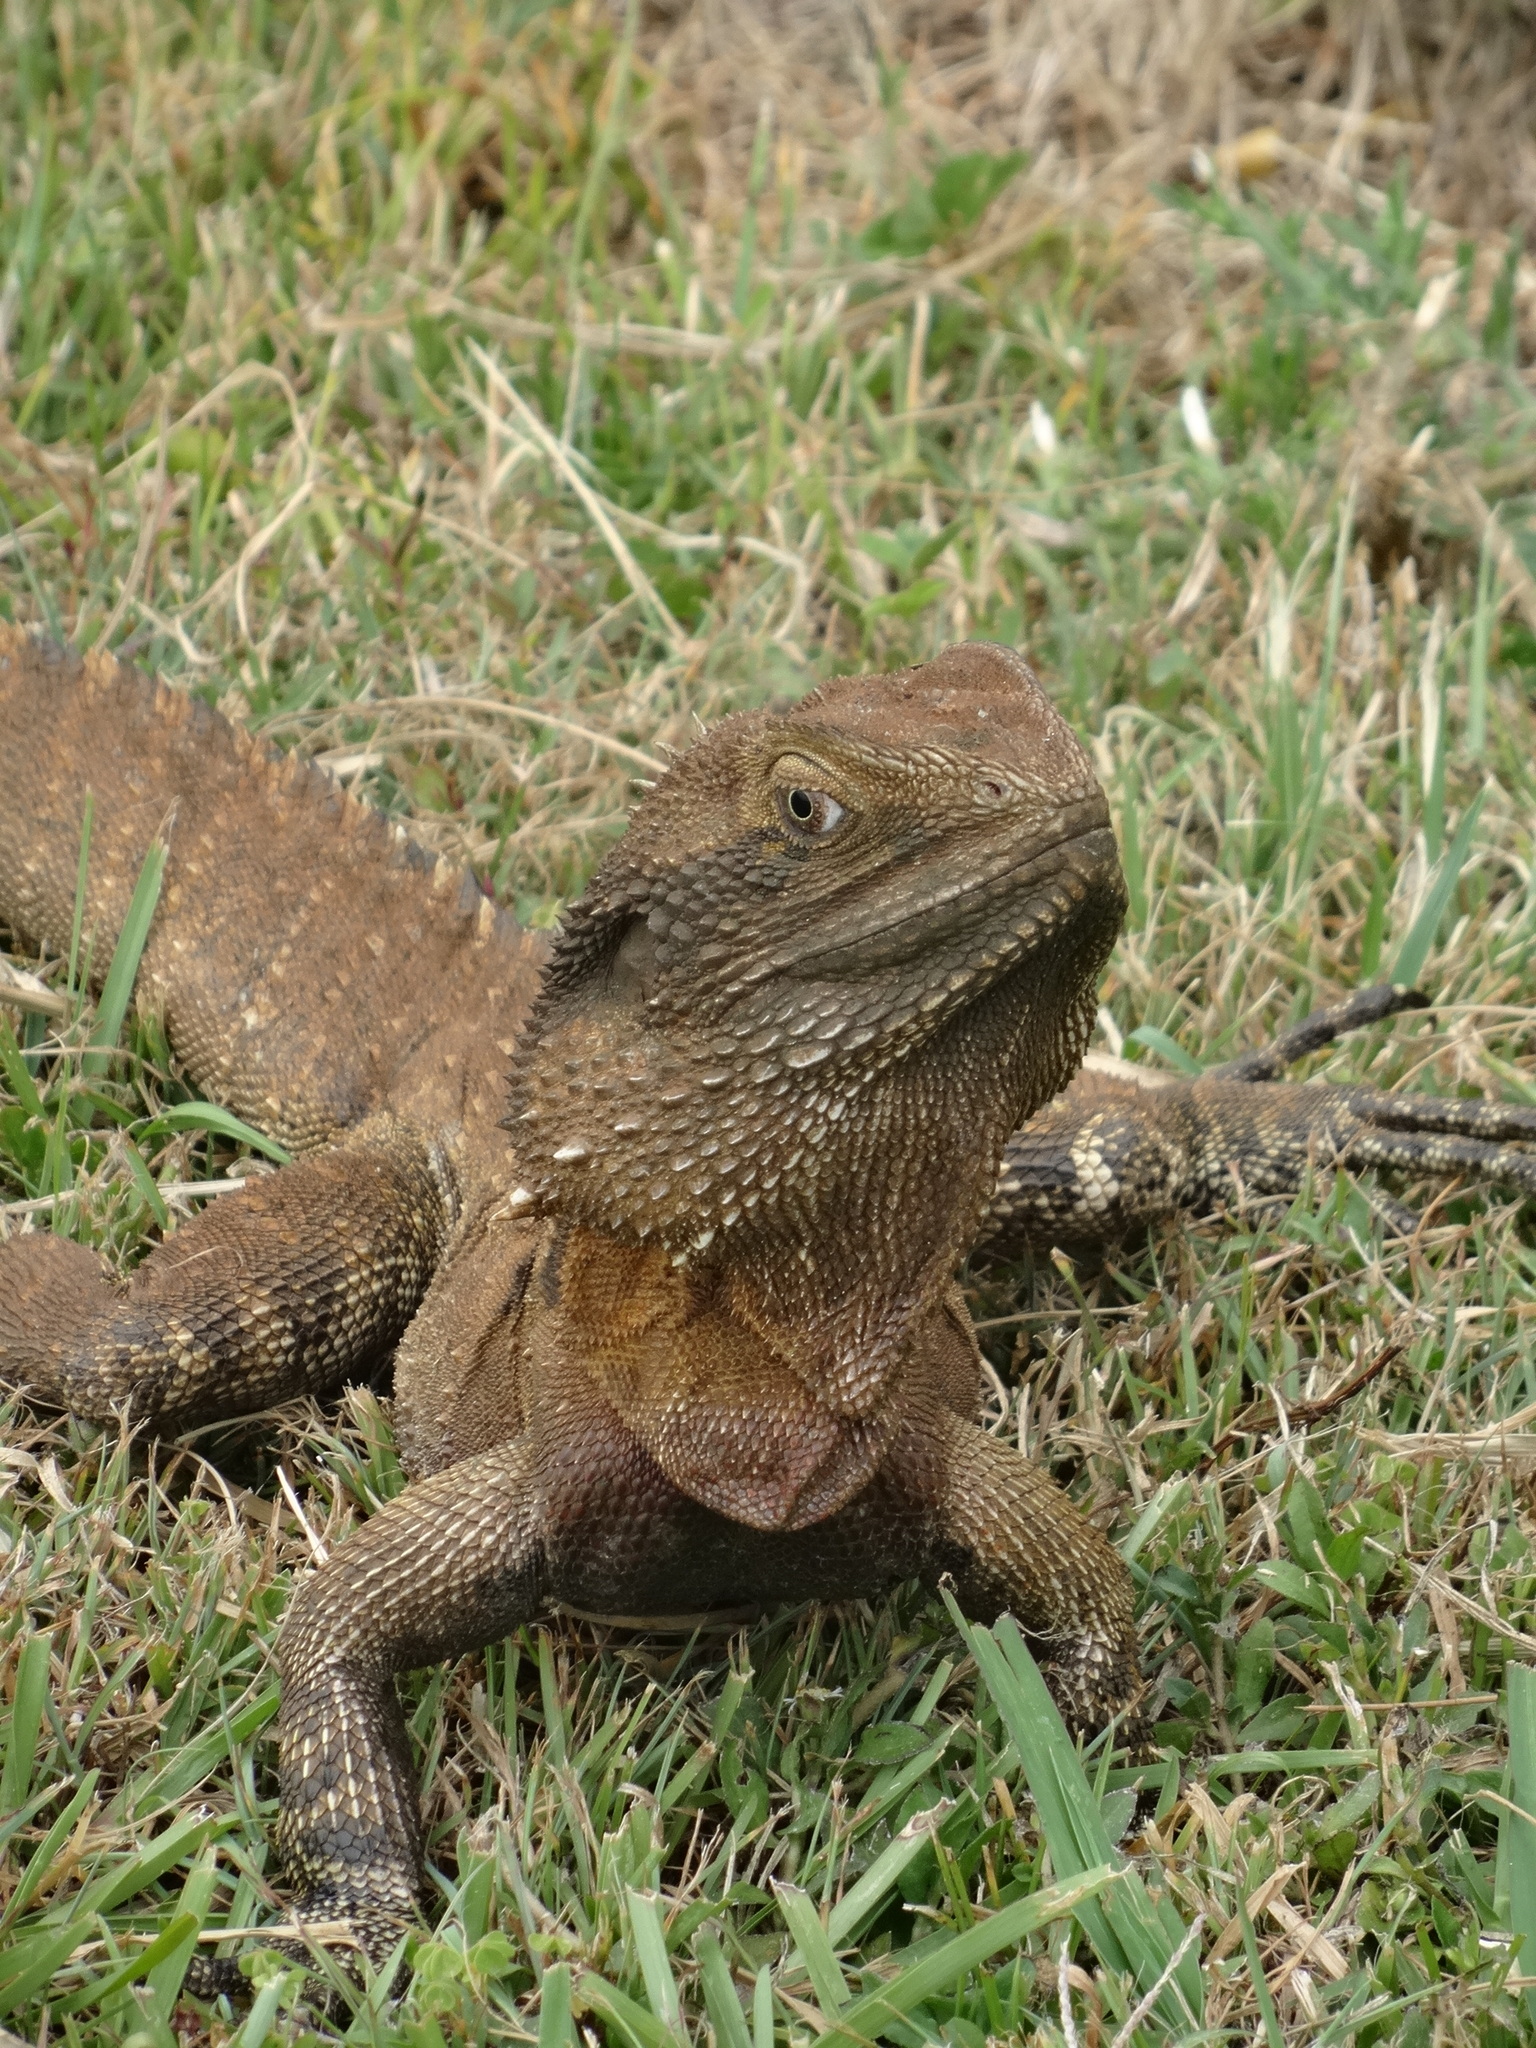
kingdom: Animalia
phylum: Chordata
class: Squamata
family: Agamidae
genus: Intellagama
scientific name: Intellagama lesueurii
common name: Eastern water dragon
